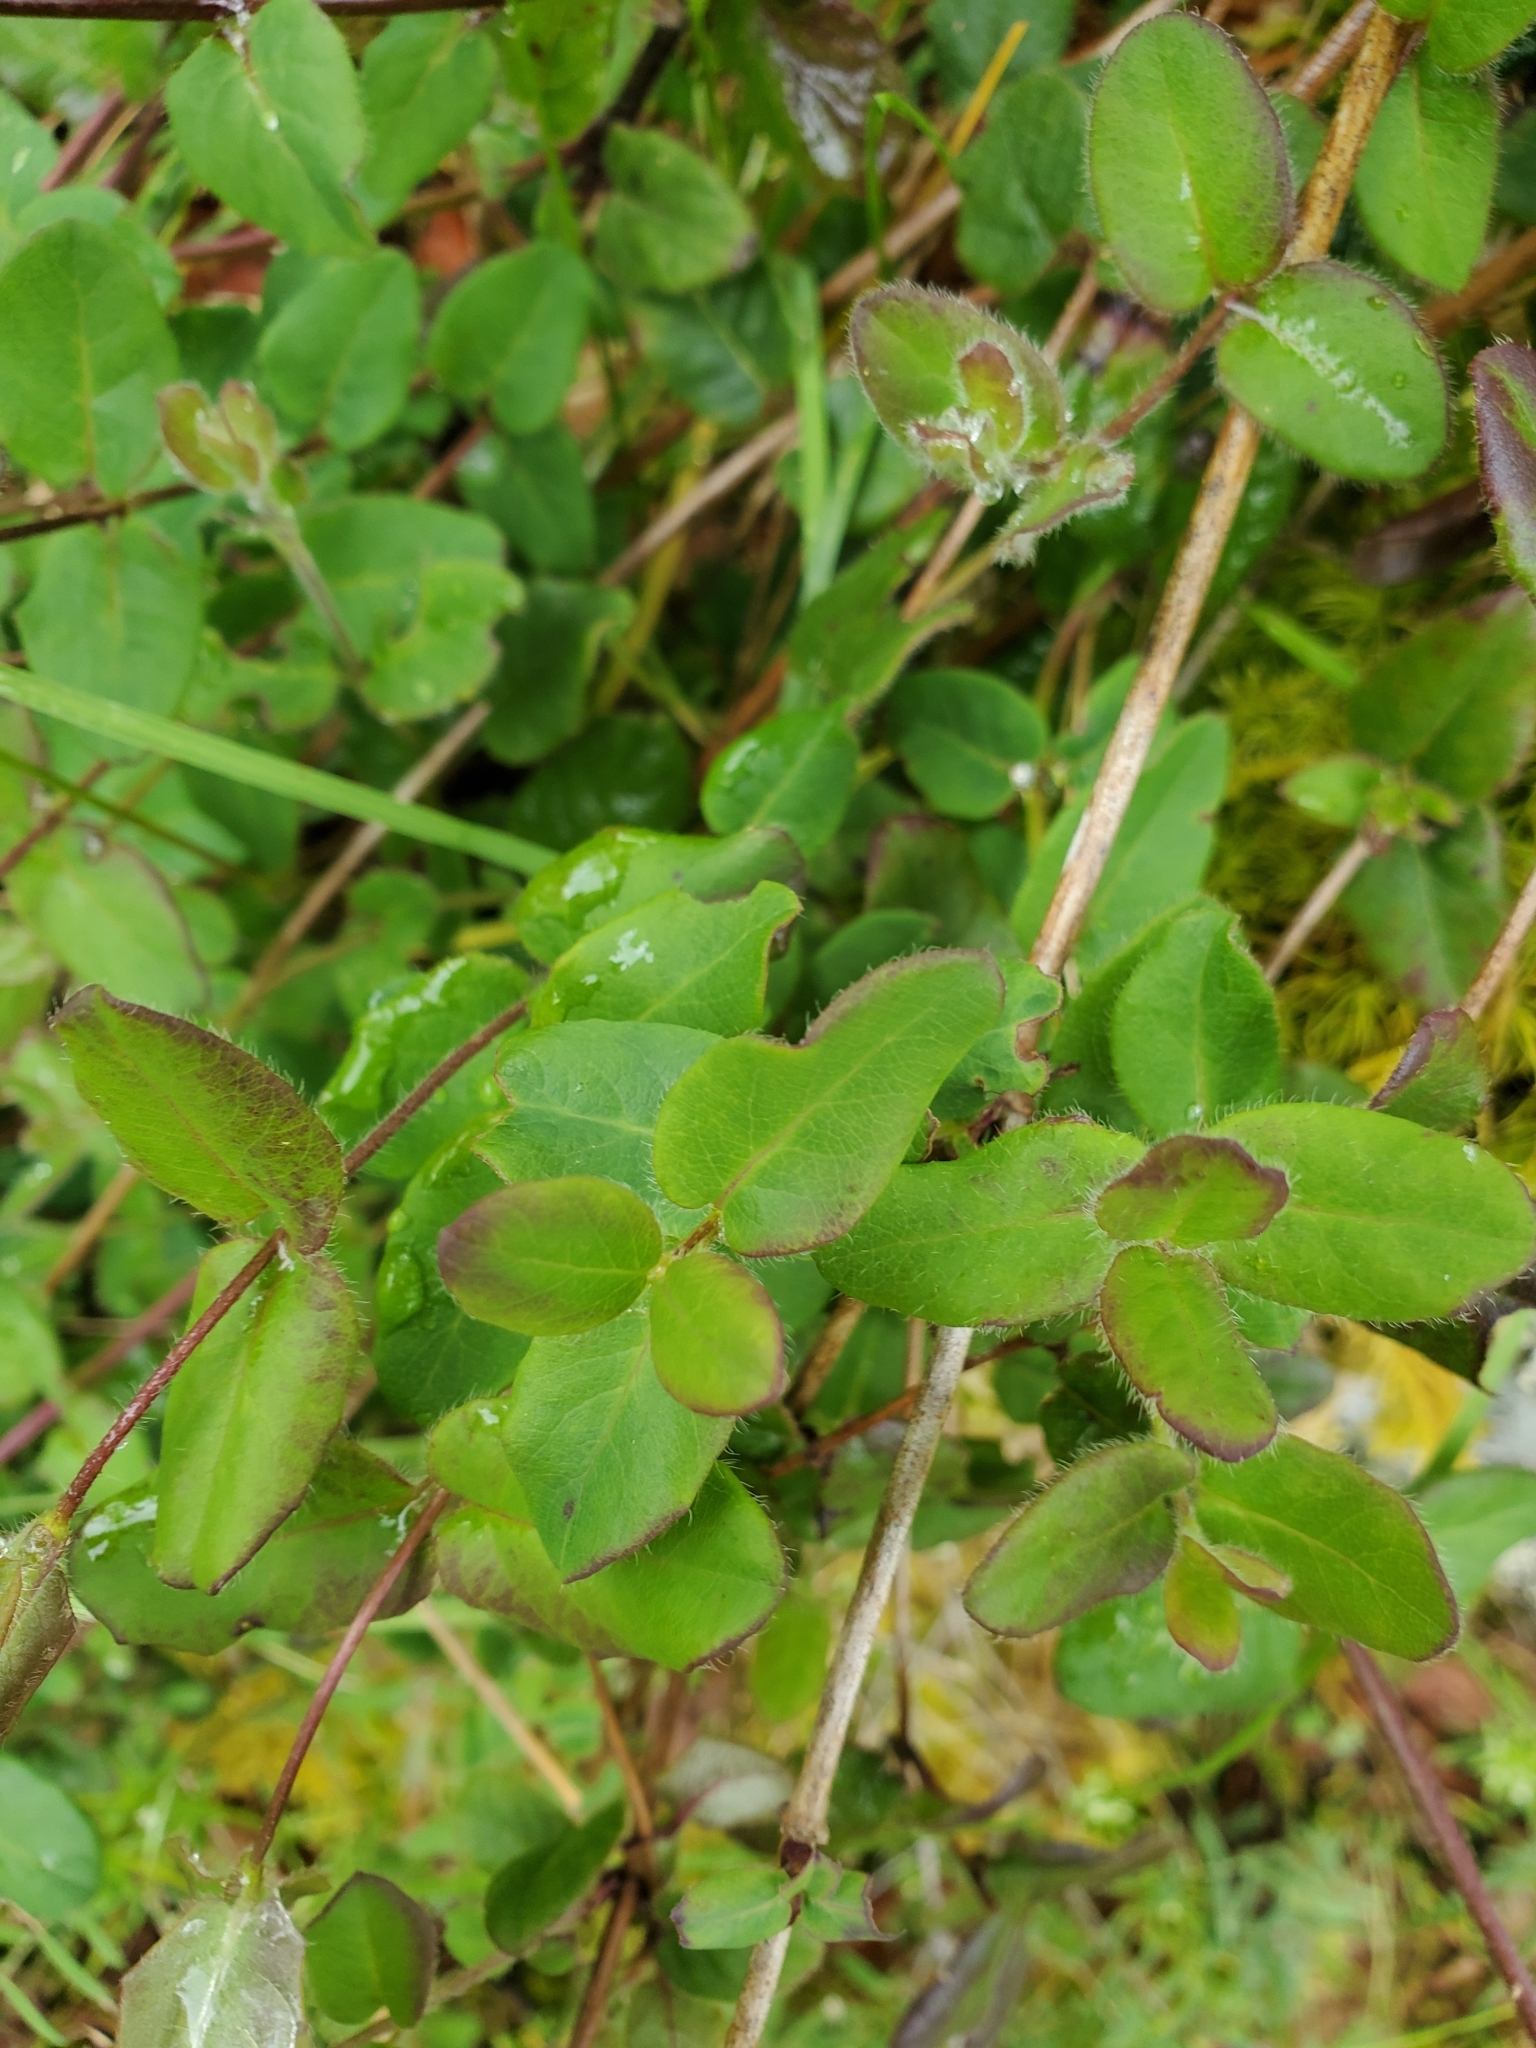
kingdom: Plantae
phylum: Tracheophyta
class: Magnoliopsida
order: Dipsacales
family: Caprifoliaceae
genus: Lonicera
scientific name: Lonicera hispidula
